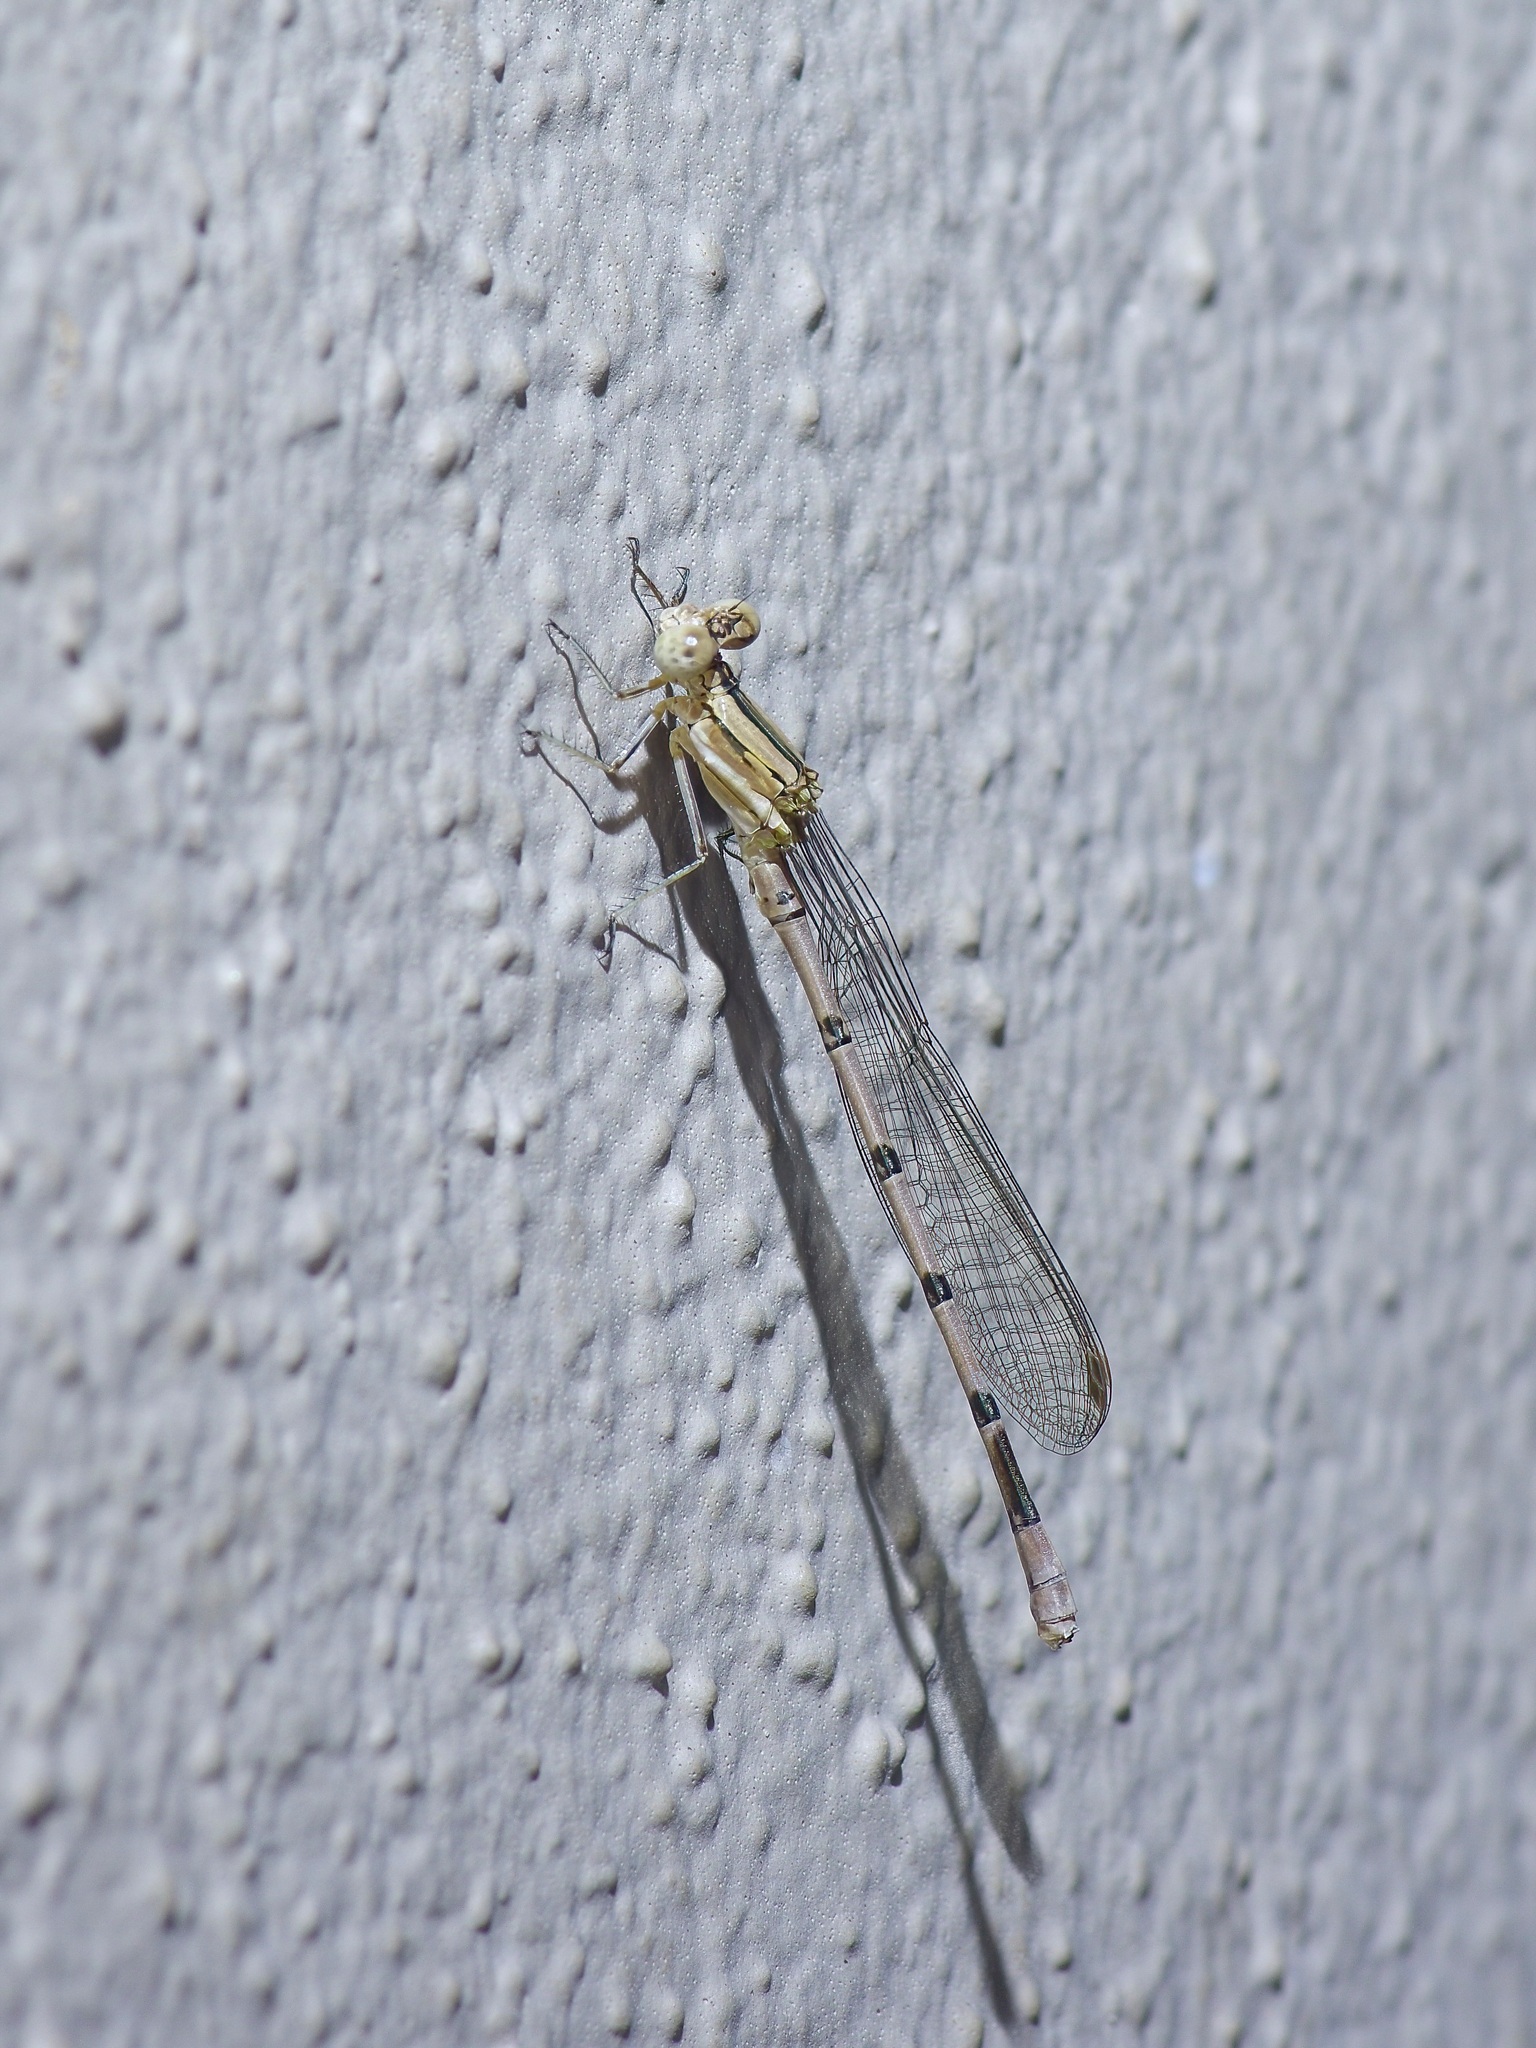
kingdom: Animalia
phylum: Arthropoda
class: Insecta
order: Odonata
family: Coenagrionidae
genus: Argia
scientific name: Argia nahuana
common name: Aztec dancer
